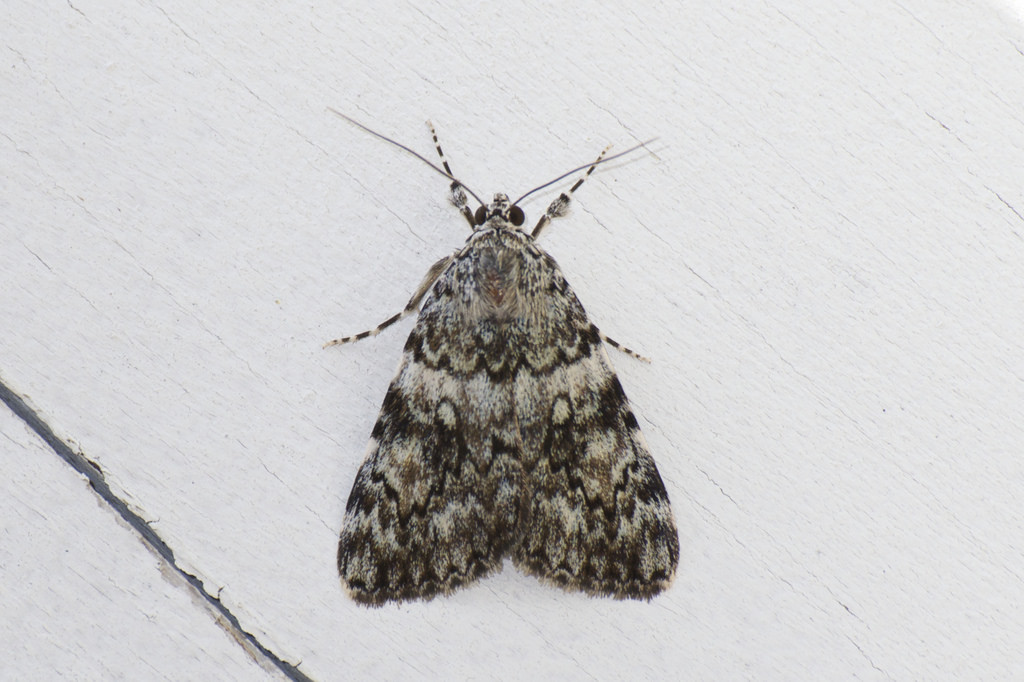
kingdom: Animalia
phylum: Arthropoda
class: Insecta
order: Lepidoptera
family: Erebidae
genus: Catocala
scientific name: Catocala lineella
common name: Little lined underwing
